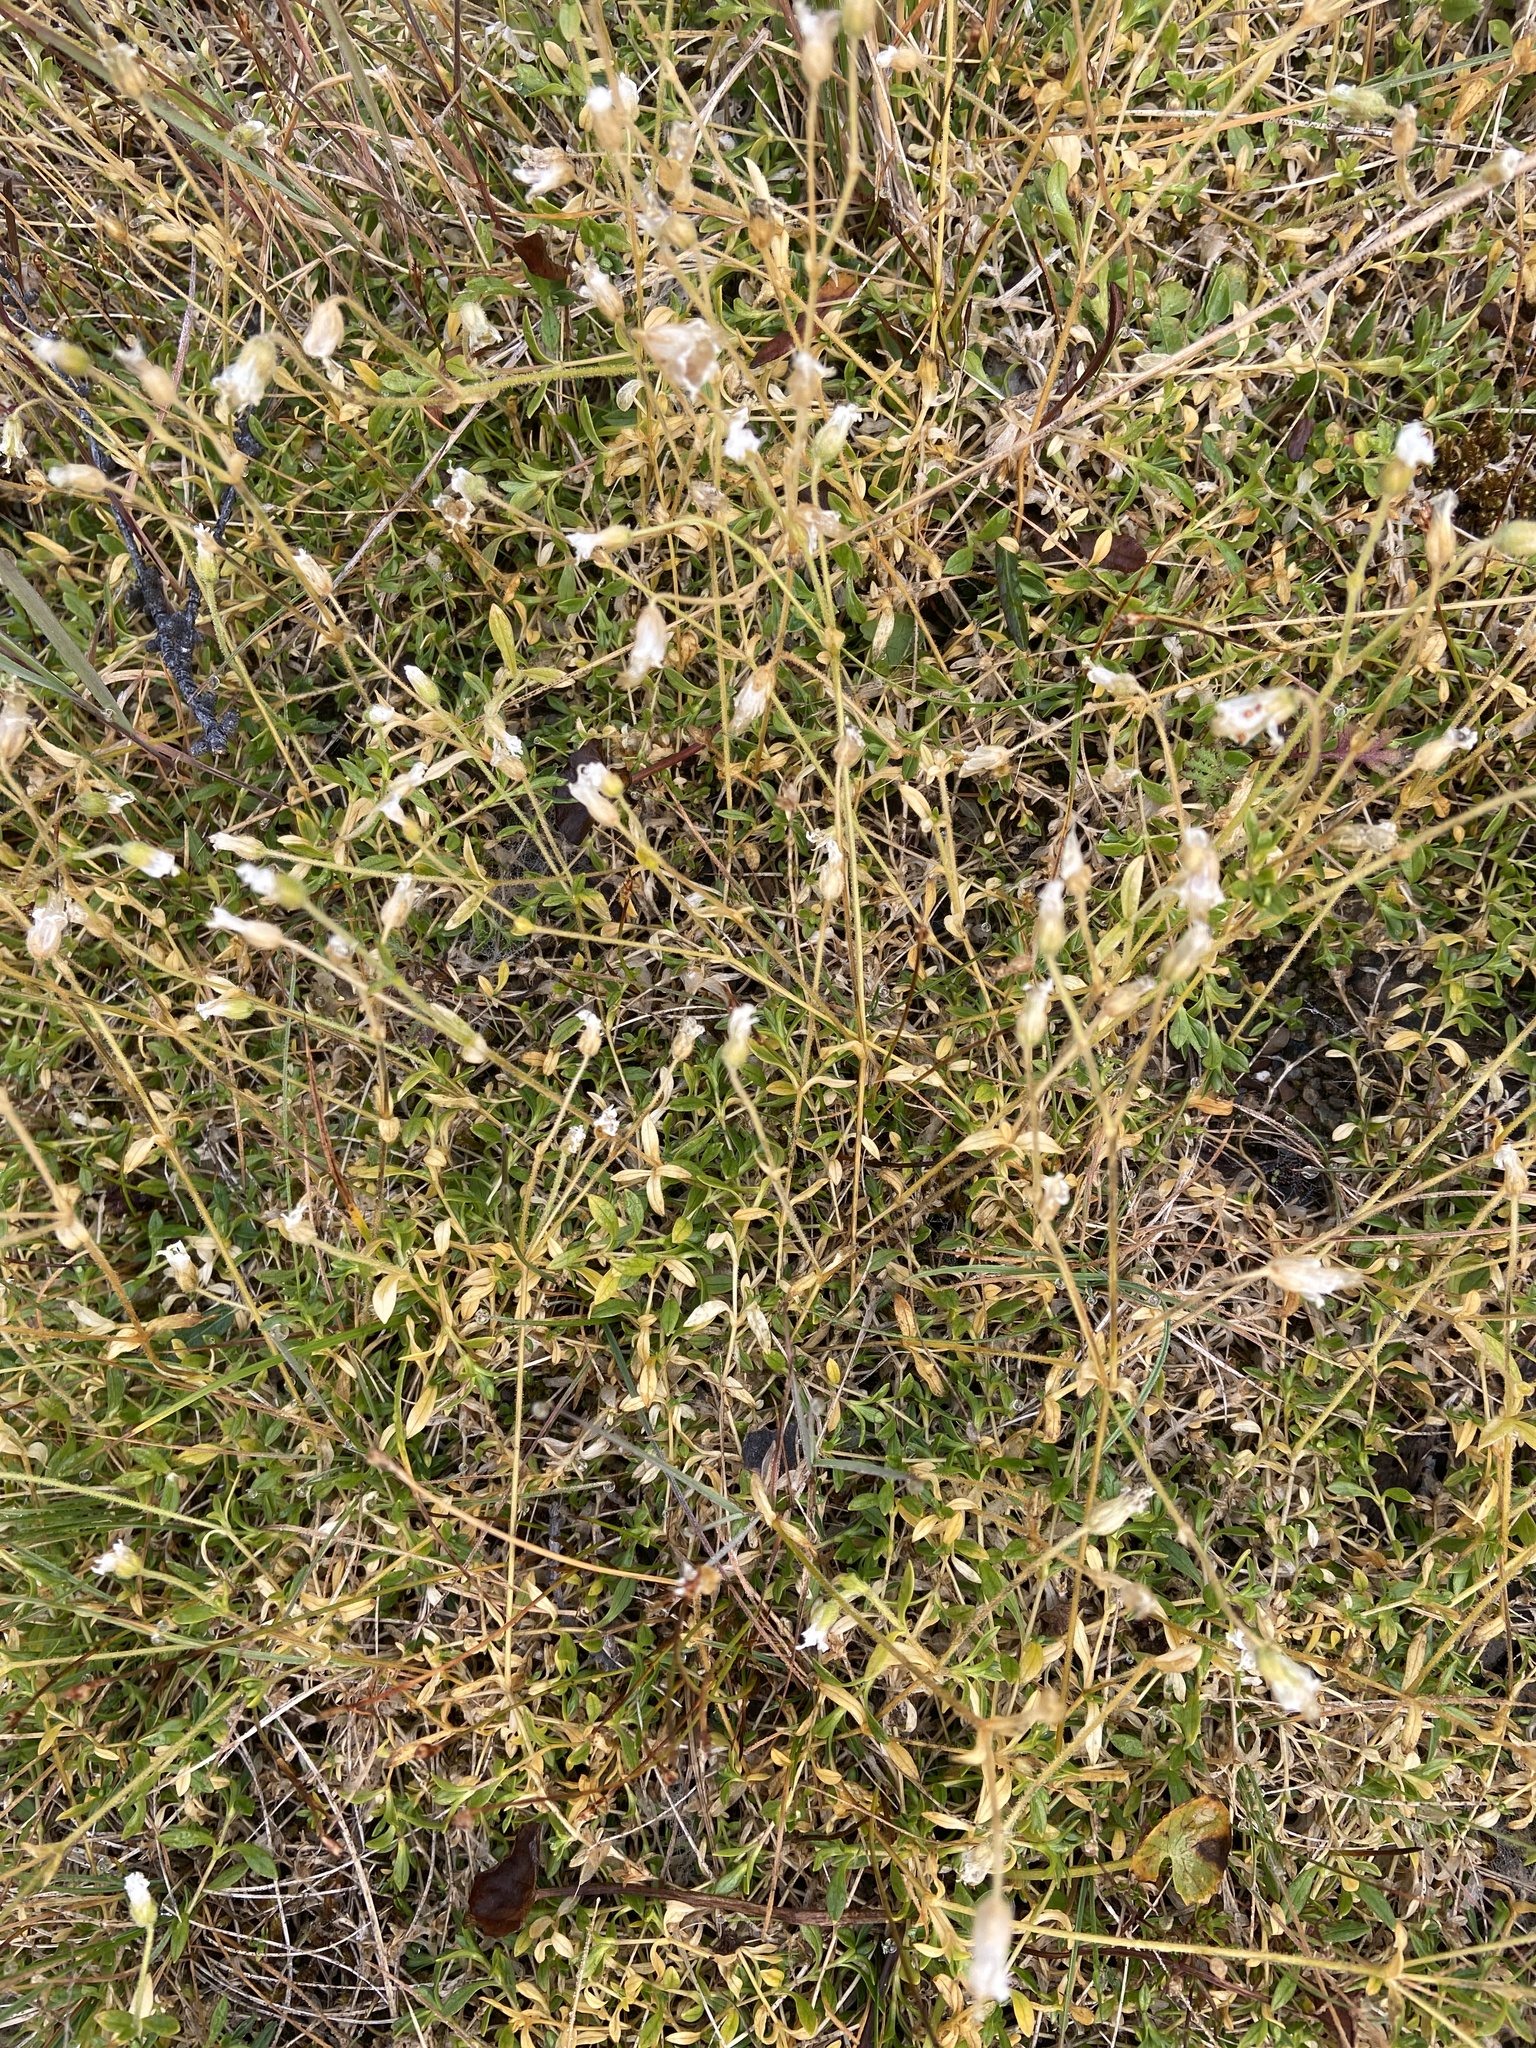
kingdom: Plantae
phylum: Tracheophyta
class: Magnoliopsida
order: Caryophyllales
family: Caryophyllaceae
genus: Cerastium
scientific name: Cerastium beeringianum
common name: Bering mouse-ear chickweed
